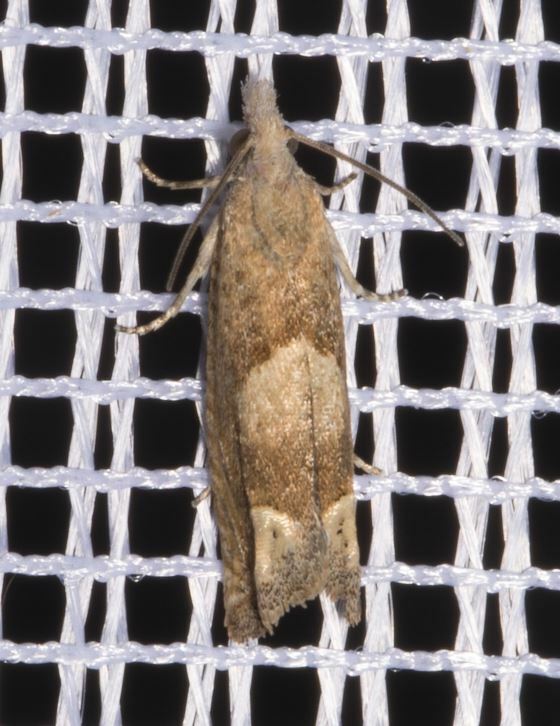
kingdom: Animalia
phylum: Arthropoda
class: Insecta
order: Lepidoptera
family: Tortricidae
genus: Eucosma
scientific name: Eucosma conterminana
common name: Pale lettuce bell
